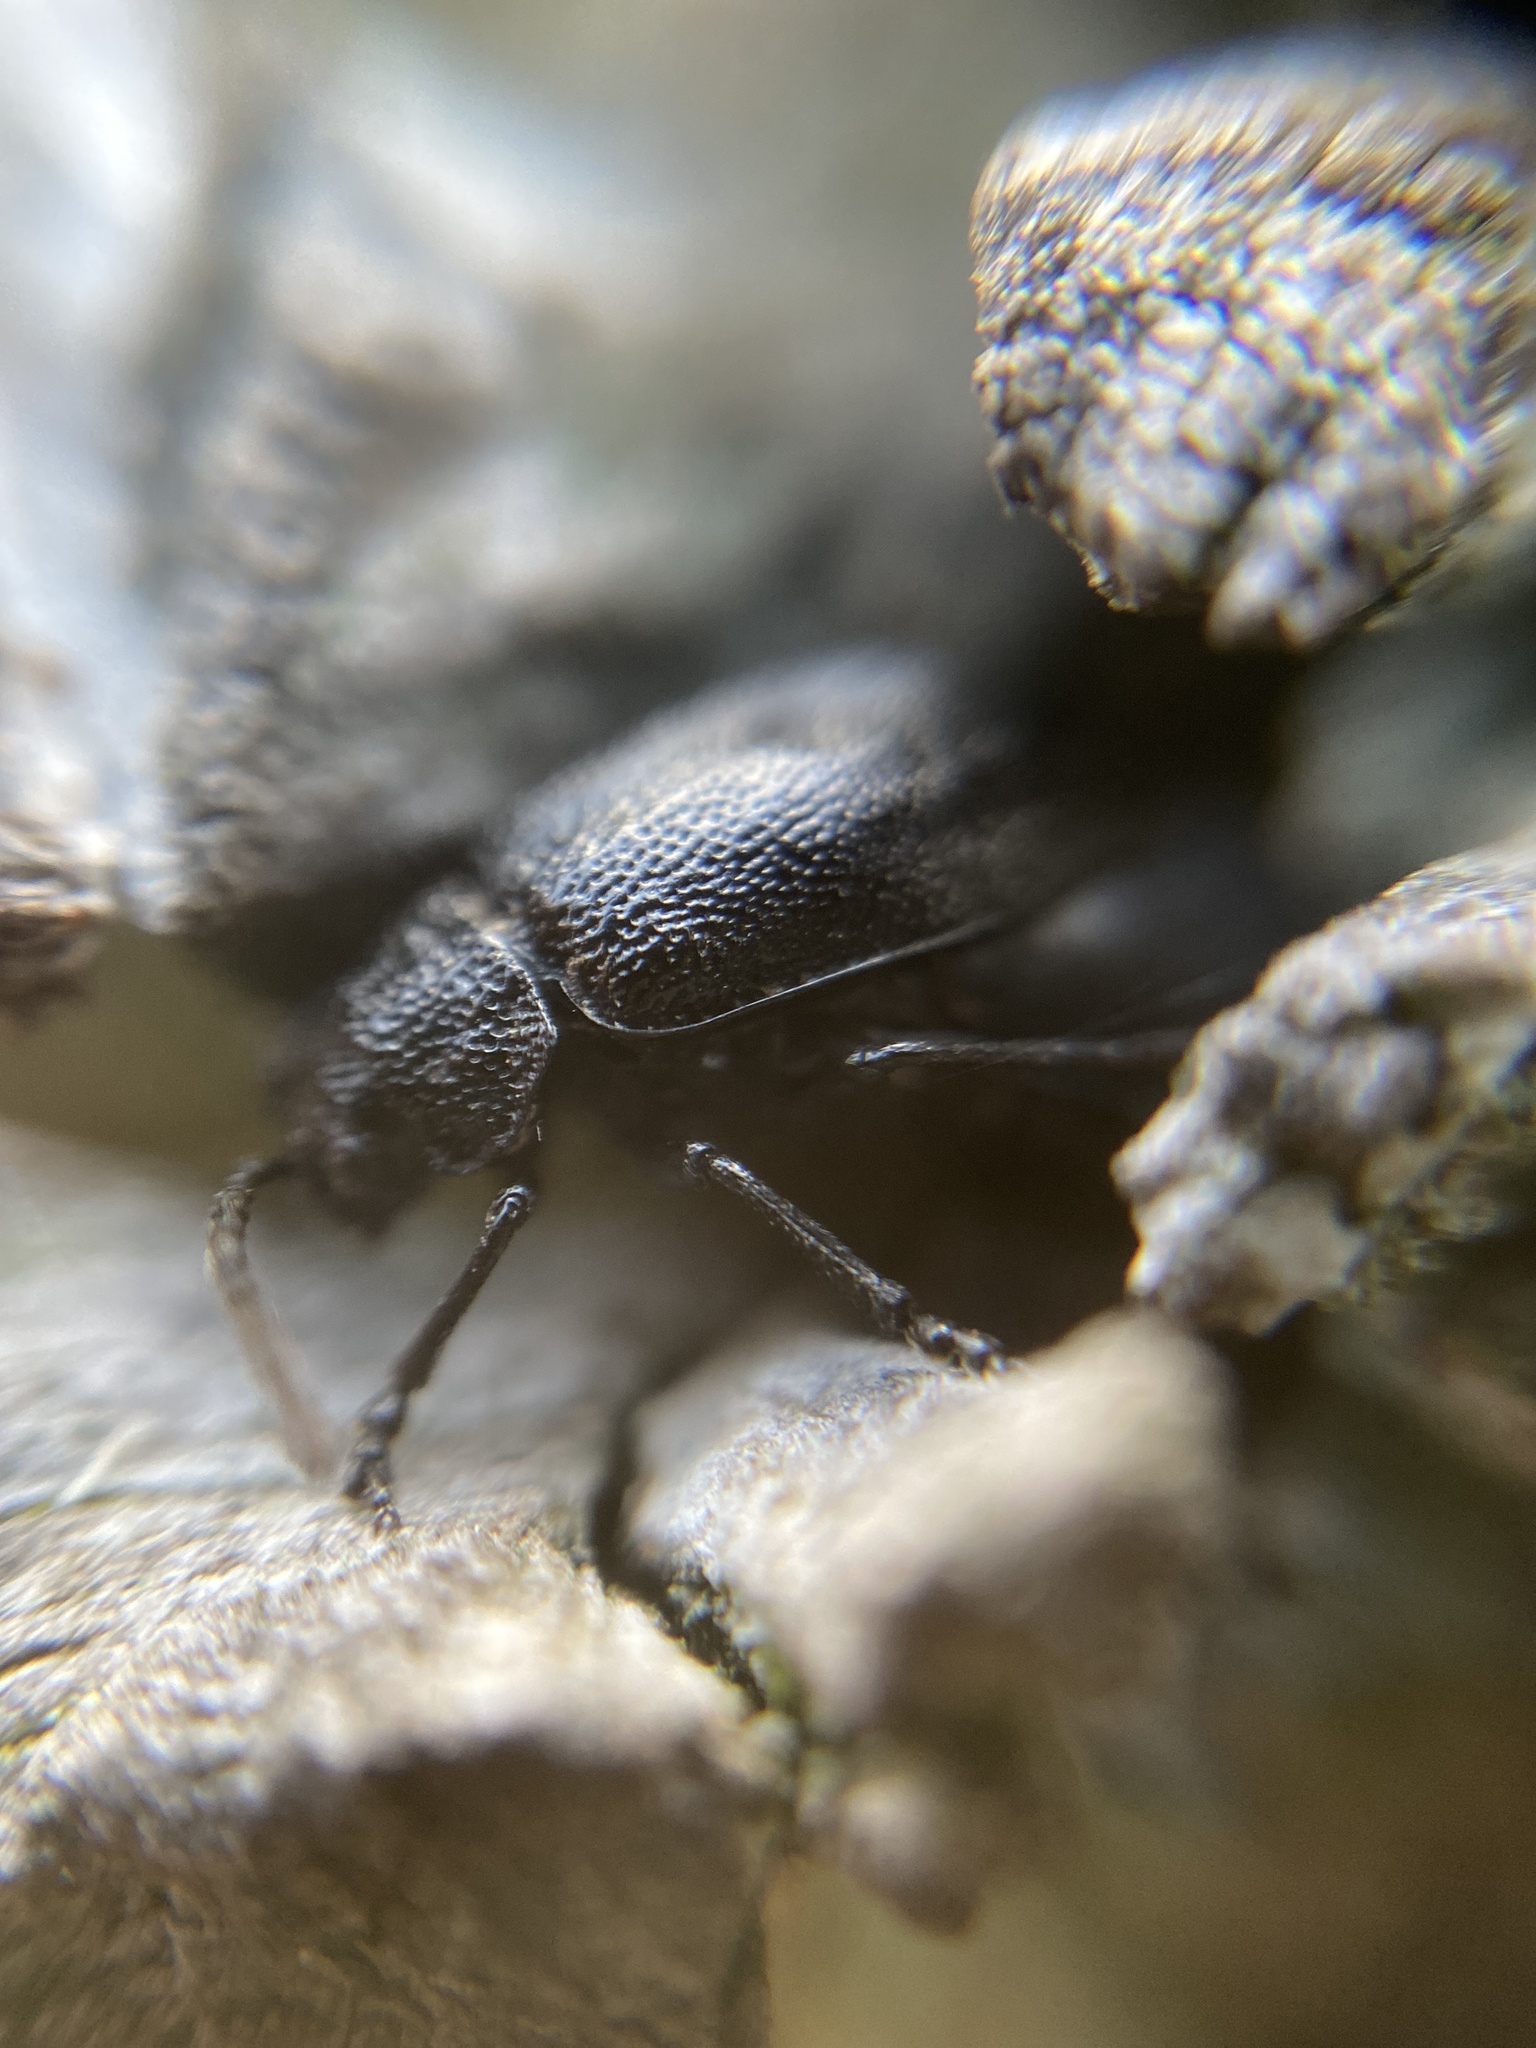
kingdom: Animalia
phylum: Arthropoda
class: Insecta
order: Coleoptera
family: Chrysomelidae
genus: Galeruca
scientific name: Galeruca tanaceti
